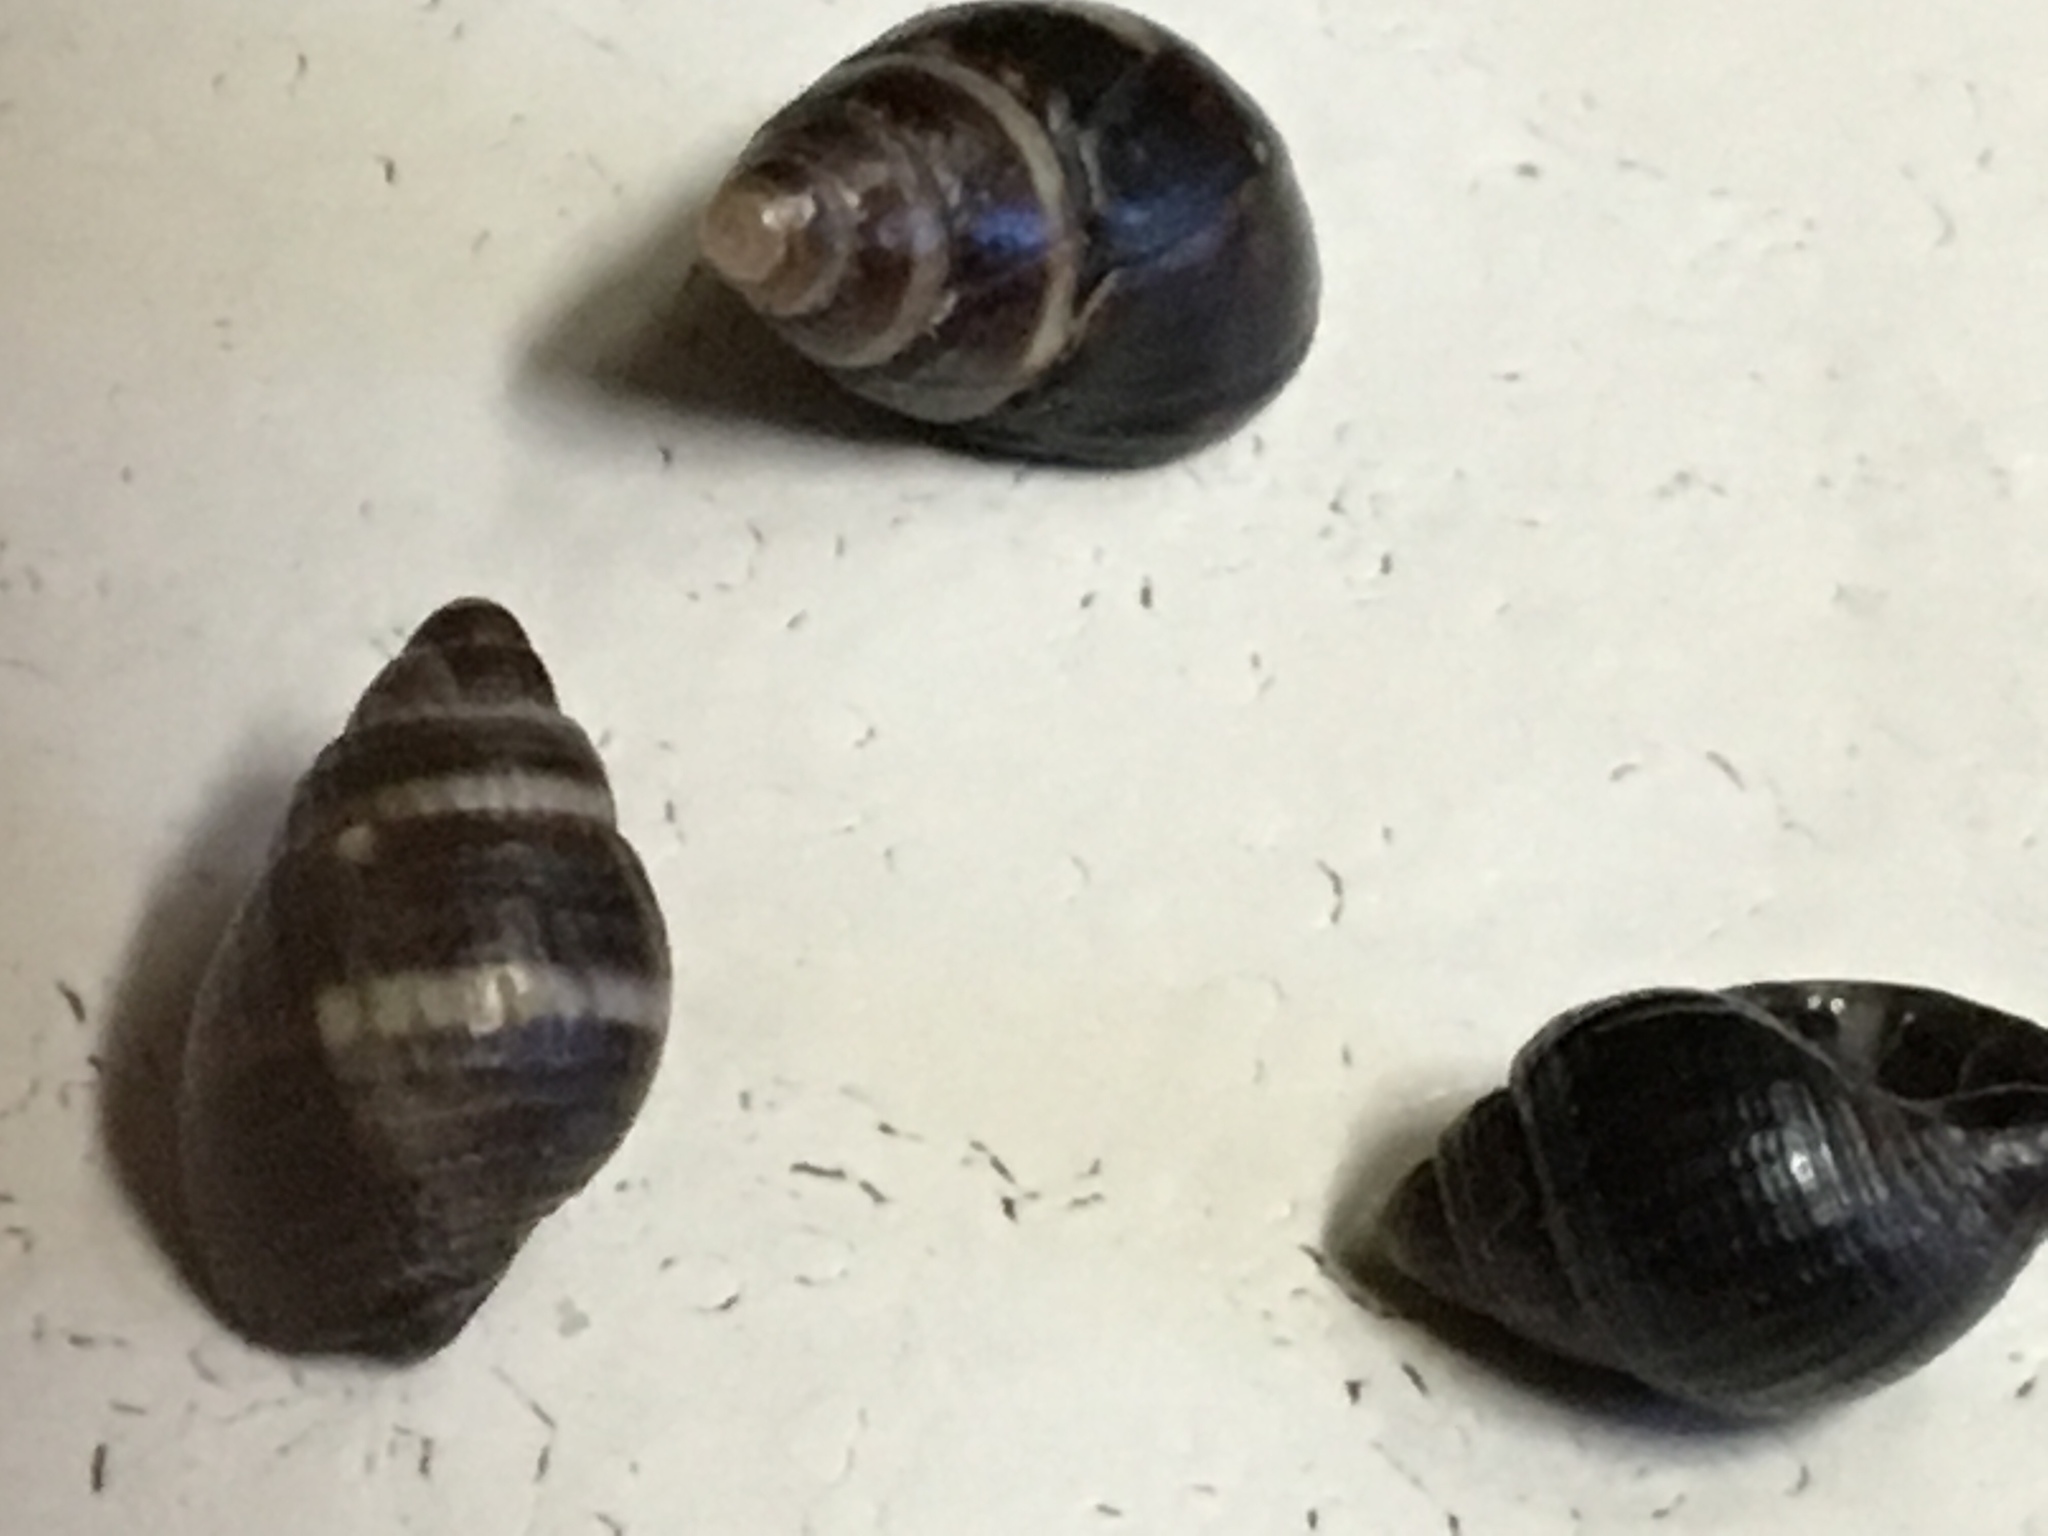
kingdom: Animalia
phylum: Mollusca
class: Gastropoda
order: Neogastropoda
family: Nassariidae
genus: Ilyanassa
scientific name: Ilyanassa obsoleta
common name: Eastern mudsnail
